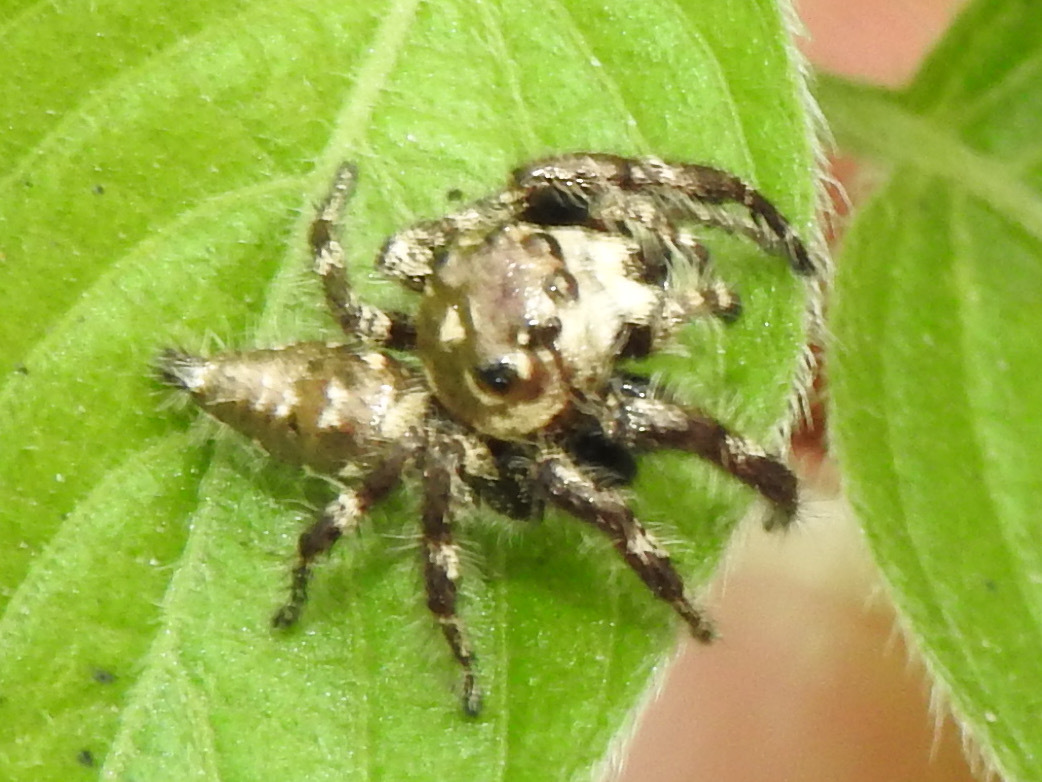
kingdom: Animalia
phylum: Arthropoda
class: Arachnida
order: Araneae
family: Salticidae
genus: Hyllus
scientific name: Hyllus semicupreus
